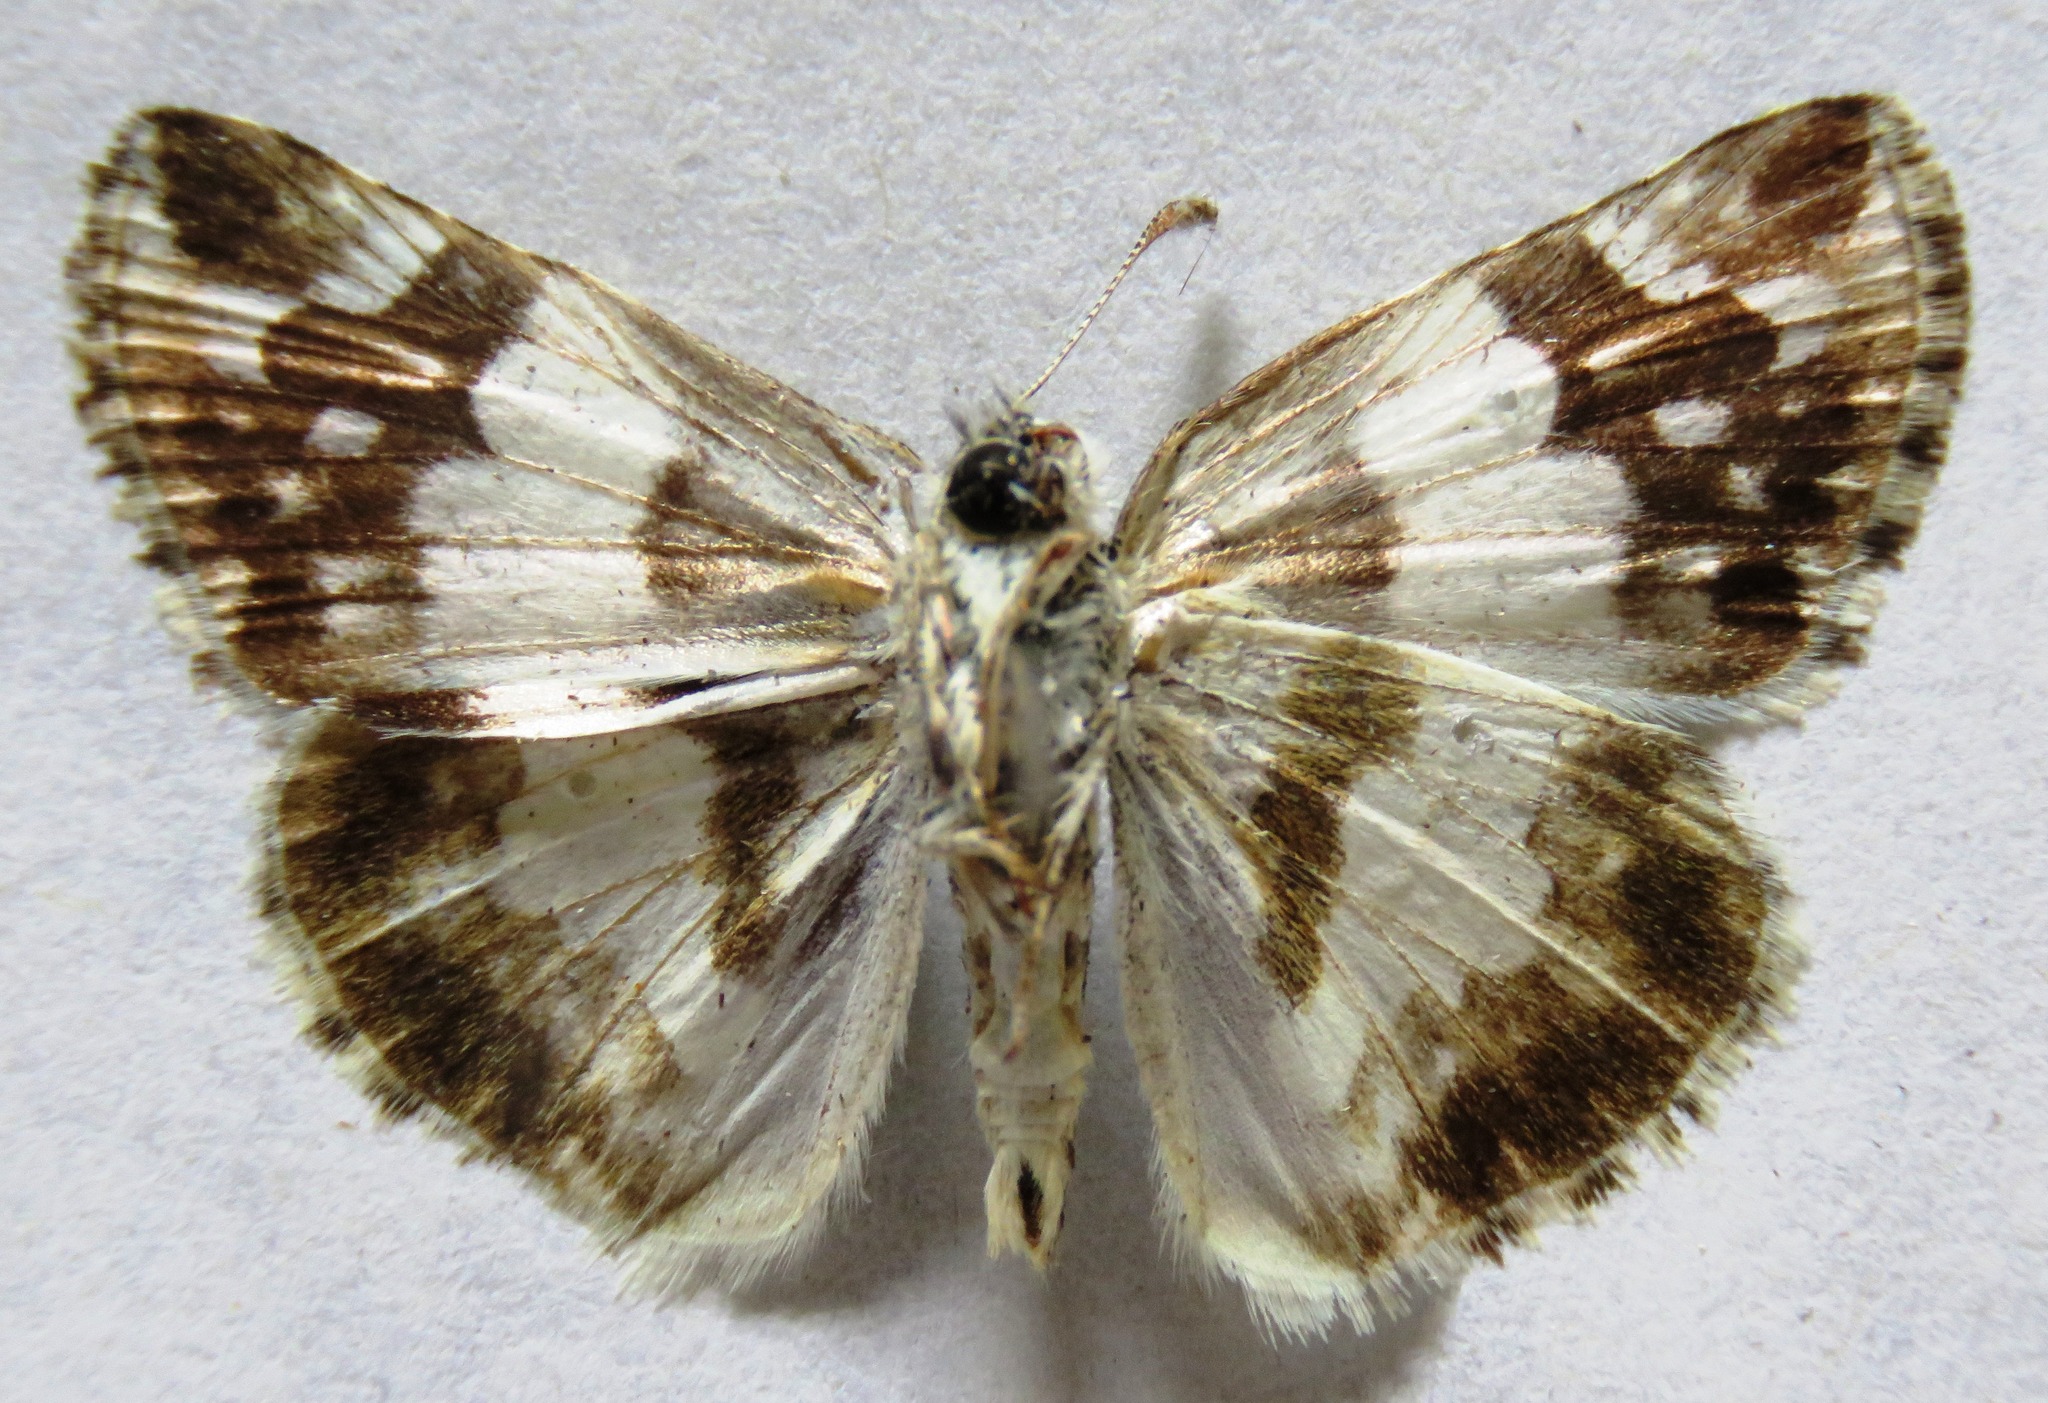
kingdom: Animalia
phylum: Arthropoda
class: Insecta
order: Lepidoptera
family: Hesperiidae
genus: Heliopyrgus
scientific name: Heliopyrgus domicella
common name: Erichson's white skipper
